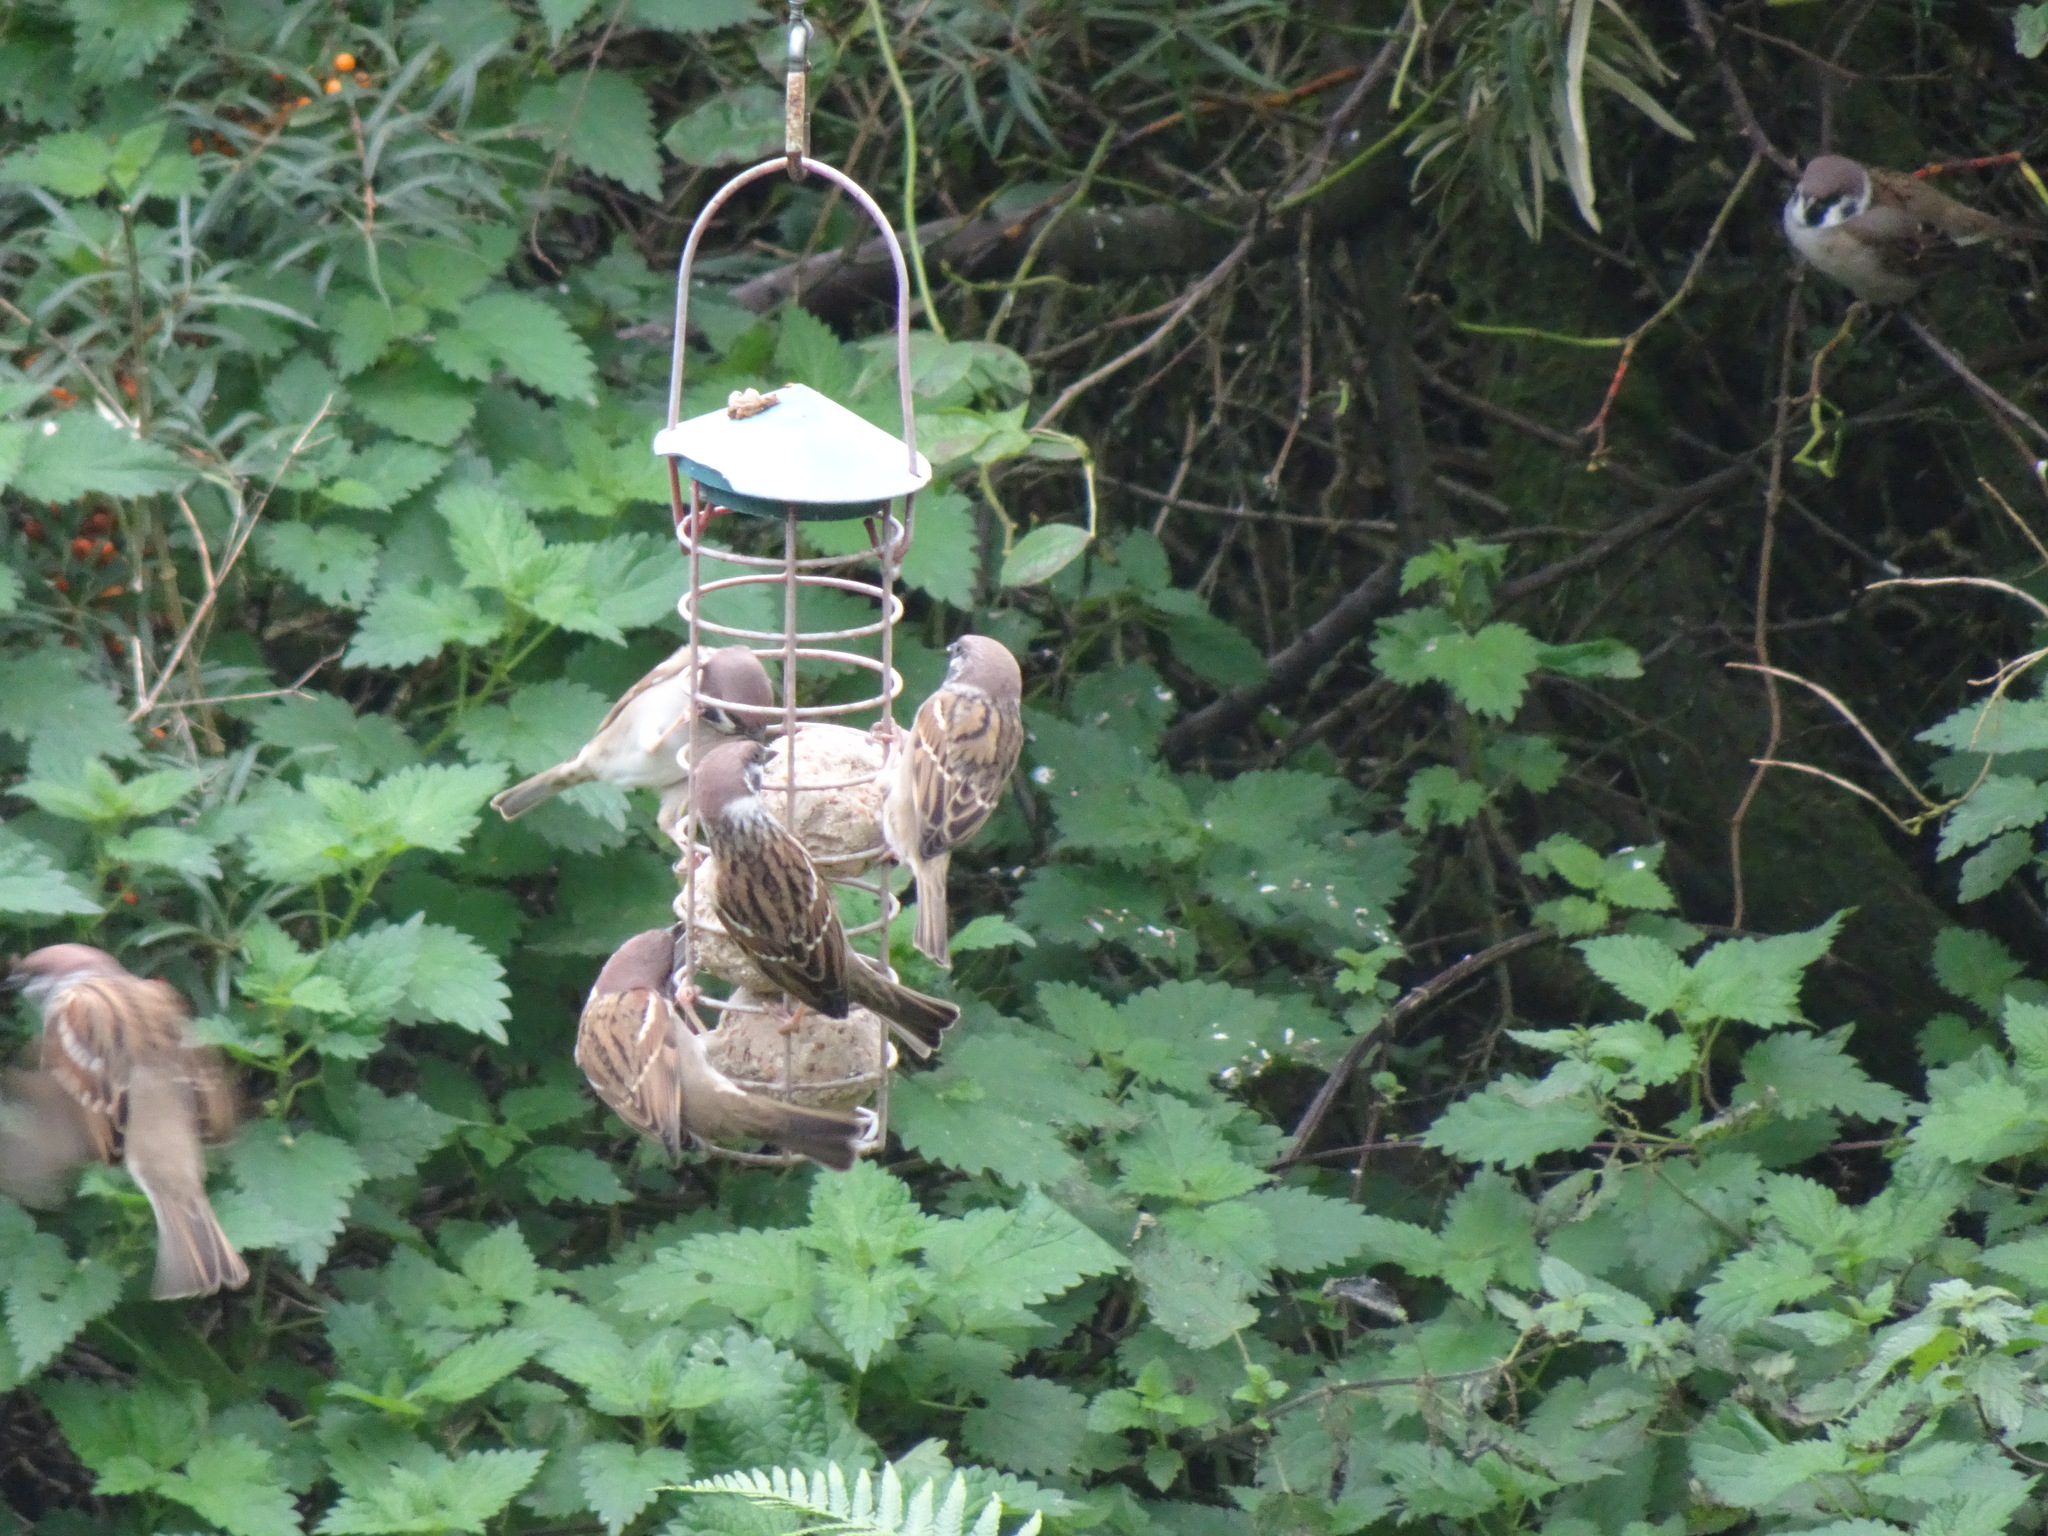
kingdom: Animalia
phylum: Chordata
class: Aves
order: Passeriformes
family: Passeridae
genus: Passer
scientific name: Passer montanus
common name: Eurasian tree sparrow
